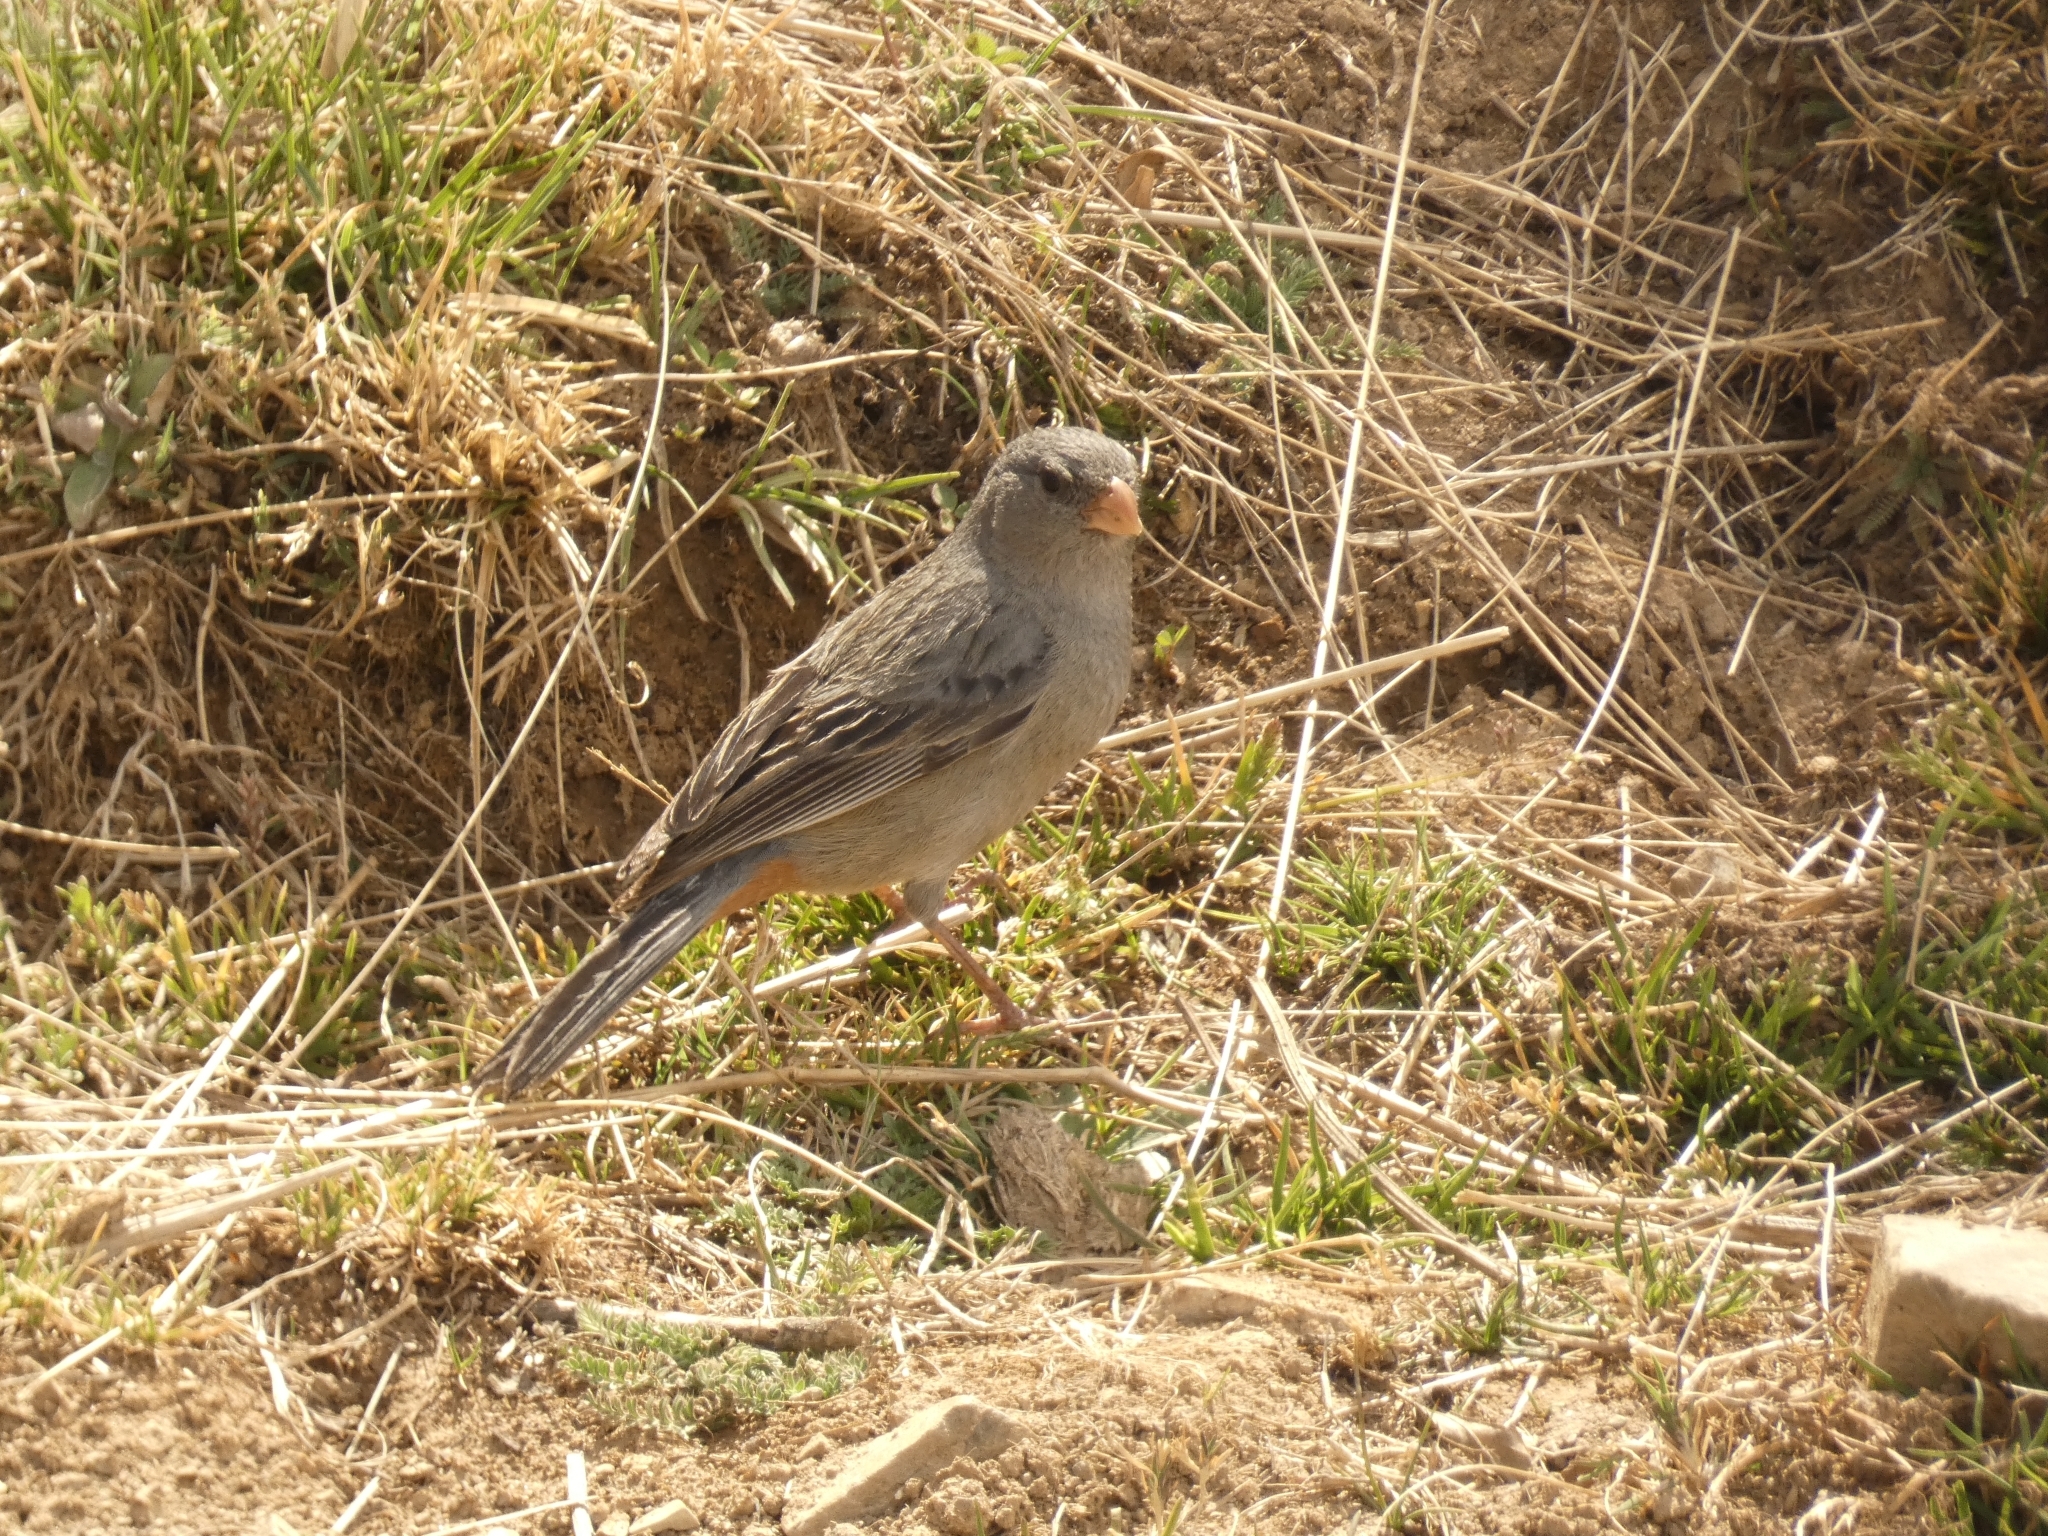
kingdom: Animalia
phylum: Chordata
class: Aves
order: Passeriformes
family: Thraupidae
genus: Catamenia
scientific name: Catamenia inornata
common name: Plain-colored seedeater
